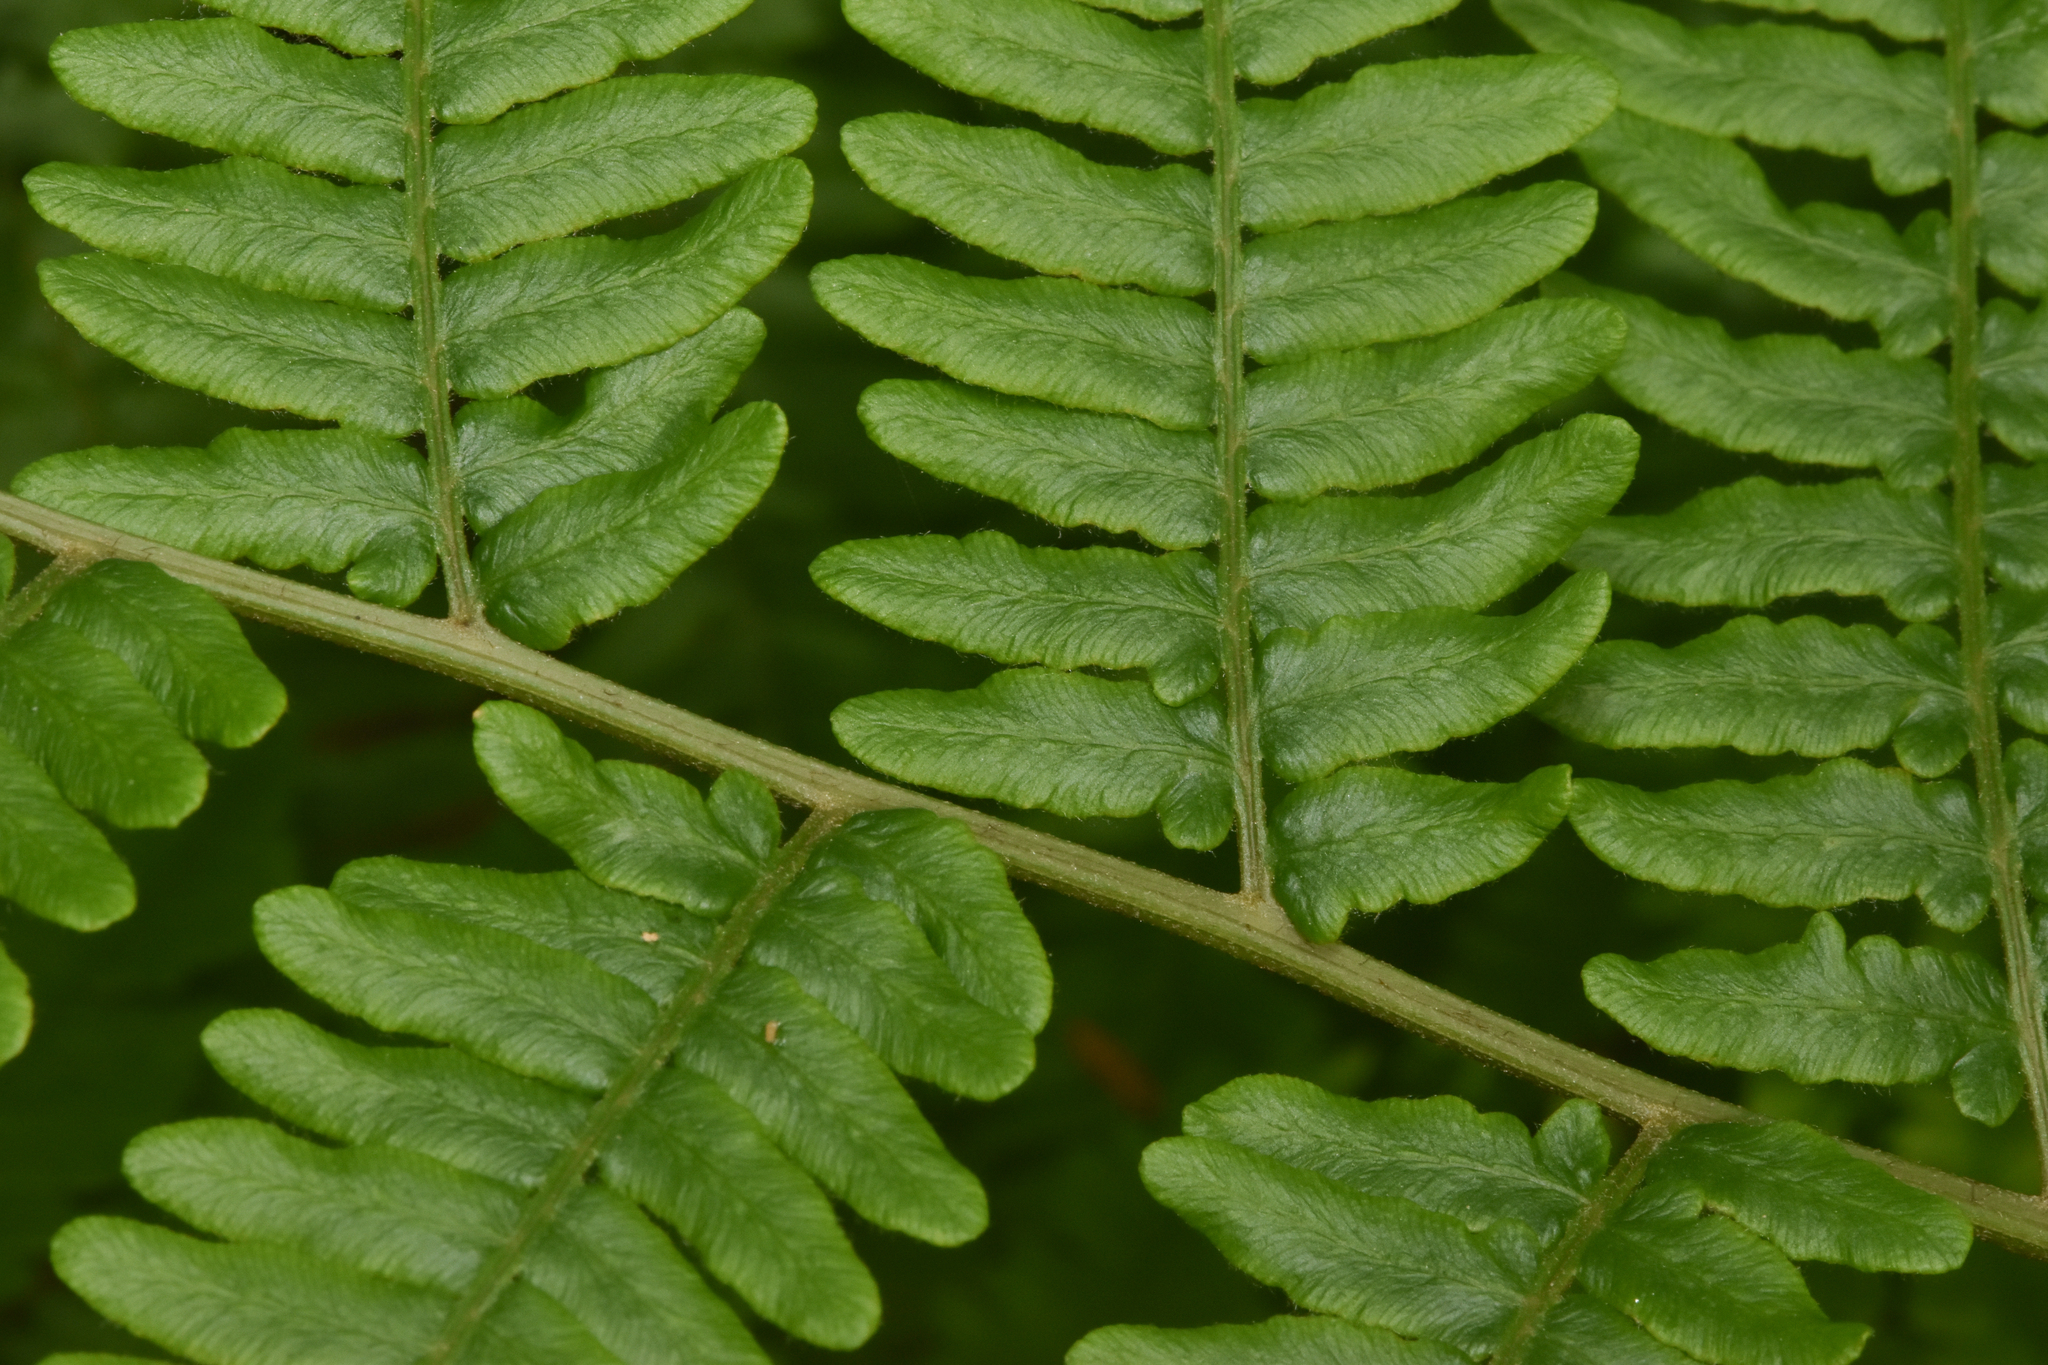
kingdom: Plantae
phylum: Tracheophyta
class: Polypodiopsida
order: Polypodiales
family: Dennstaedtiaceae
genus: Pteridium
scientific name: Pteridium aquilinum
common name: Bracken
